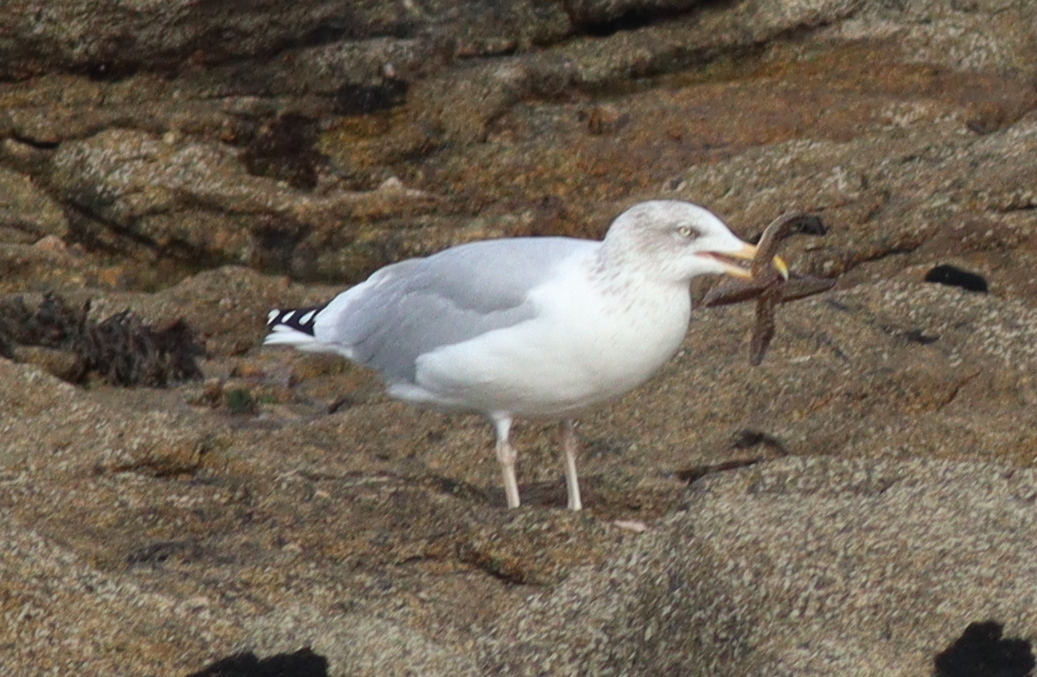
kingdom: Animalia
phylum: Chordata
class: Aves
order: Charadriiformes
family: Laridae
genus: Larus
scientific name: Larus argentatus
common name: Herring gull
